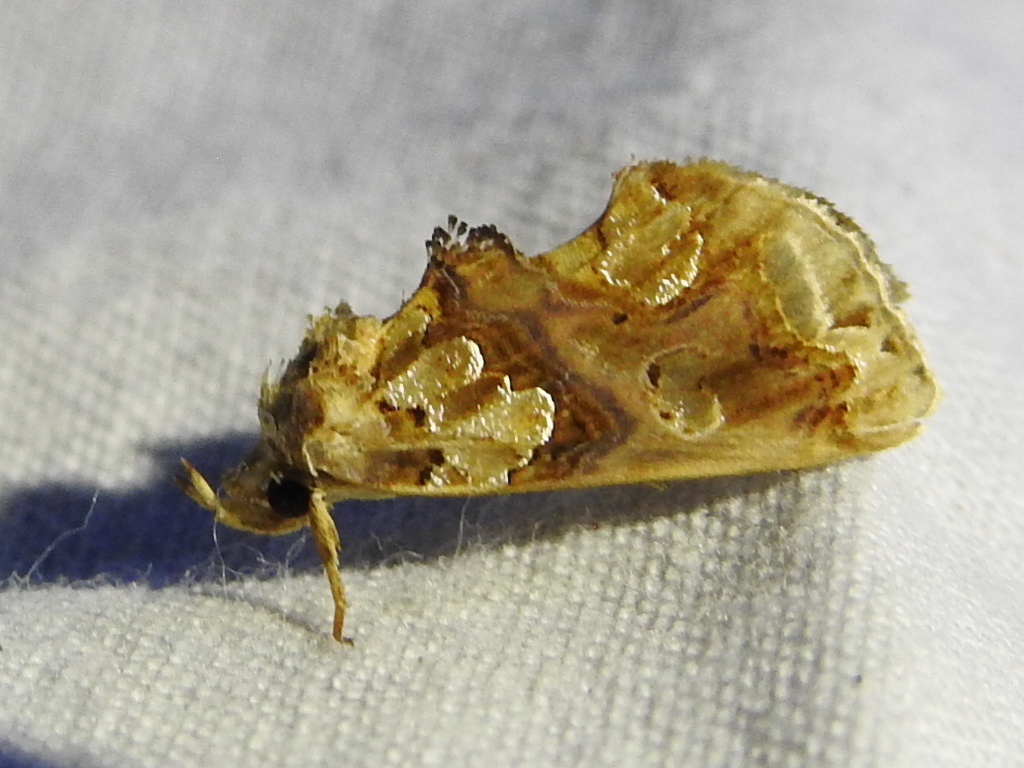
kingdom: Animalia
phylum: Arthropoda
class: Insecta
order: Lepidoptera
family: Erebidae
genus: Plusiodonta
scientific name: Plusiodonta compressipalpis
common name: Moonseed moth
